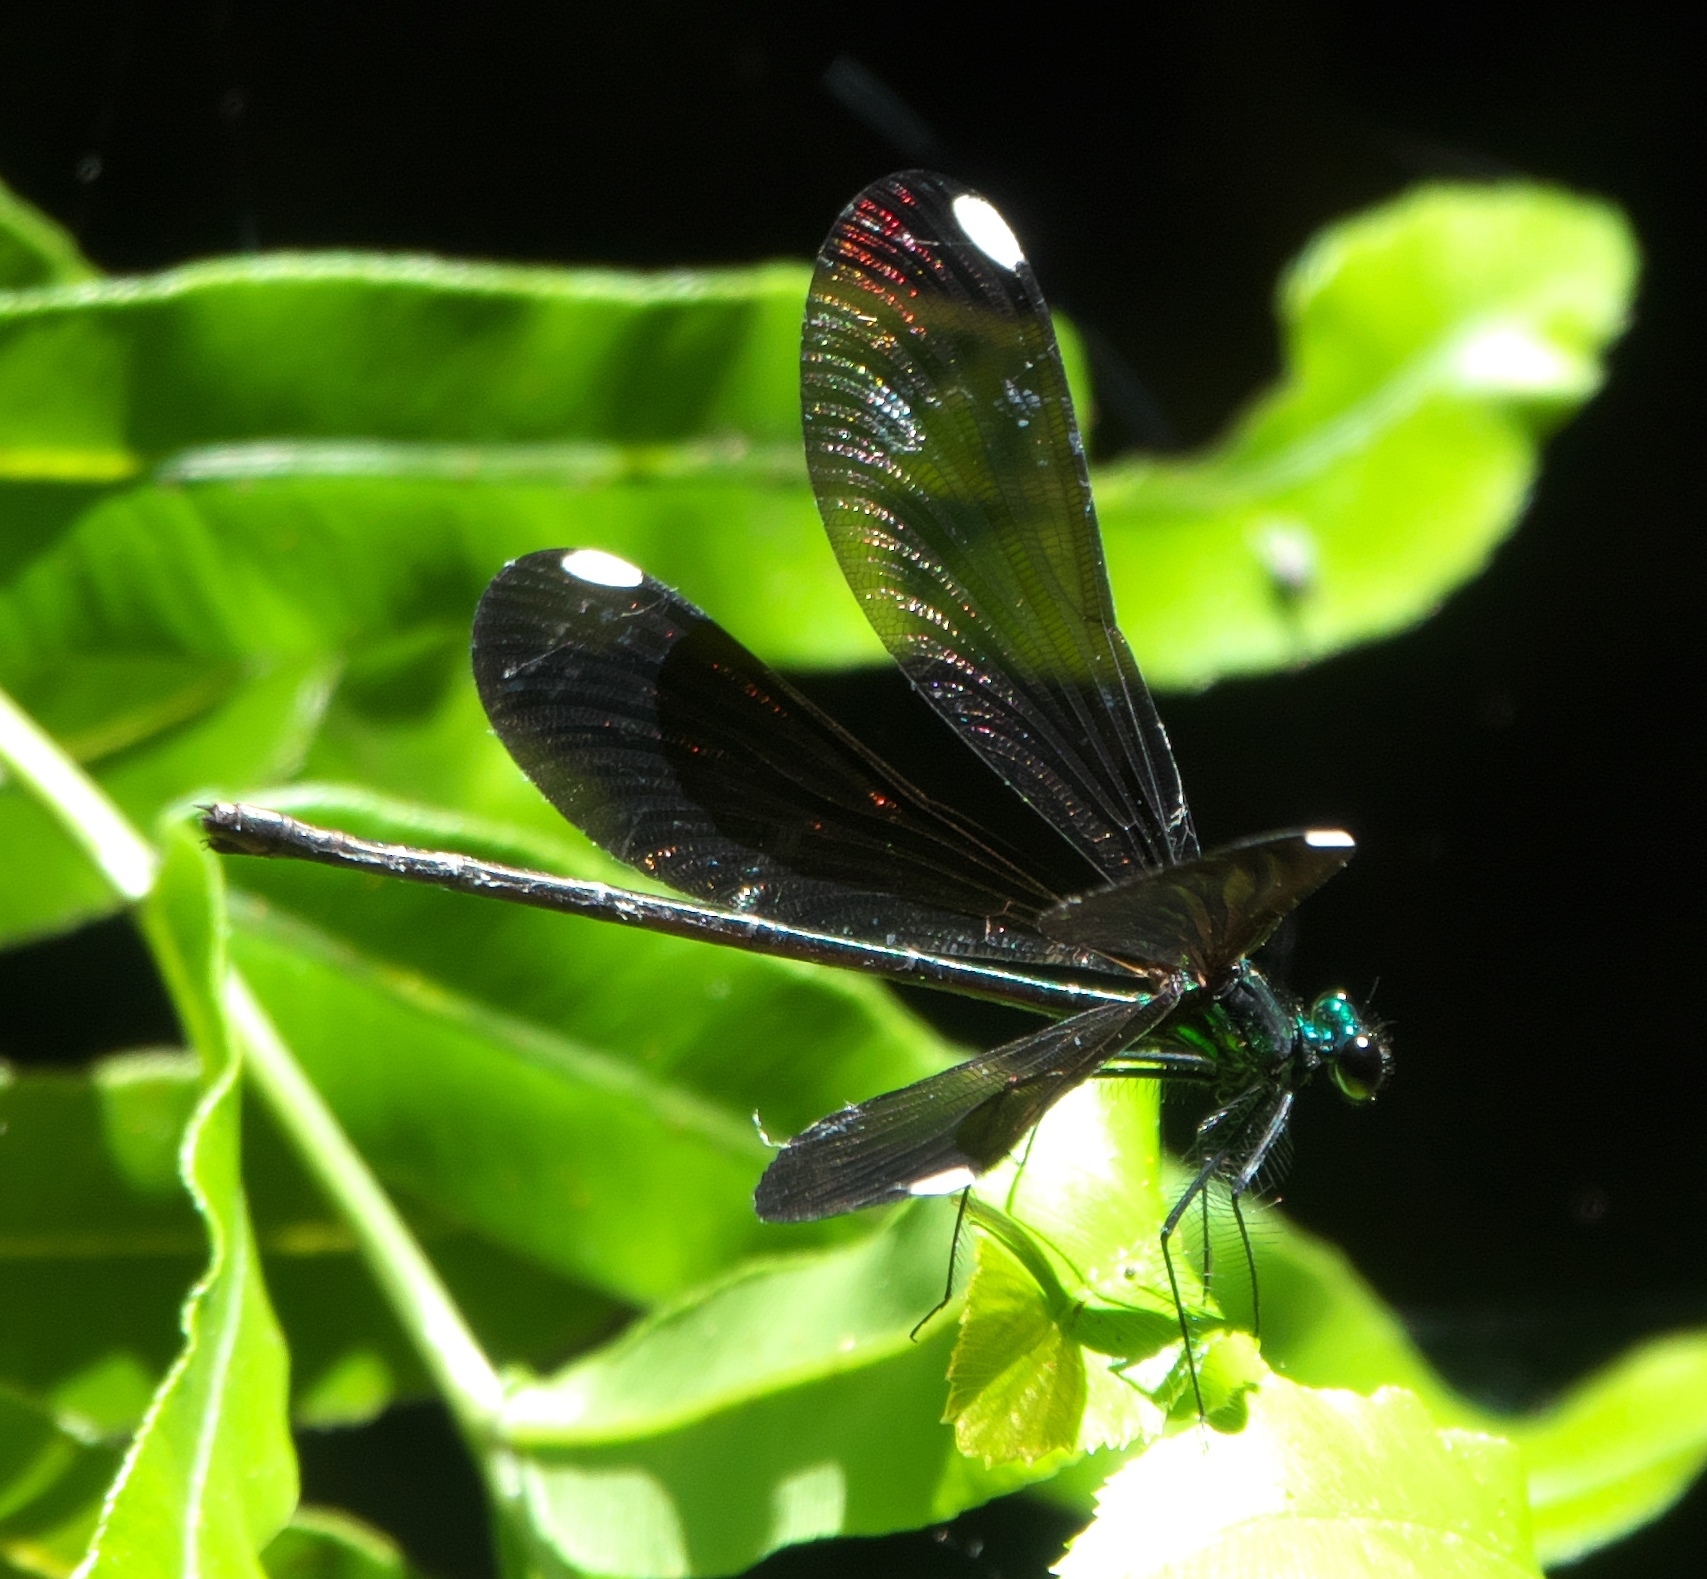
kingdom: Animalia
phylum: Arthropoda
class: Insecta
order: Odonata
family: Calopterygidae
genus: Calopteryx
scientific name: Calopteryx maculata
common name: Ebony jewelwing
